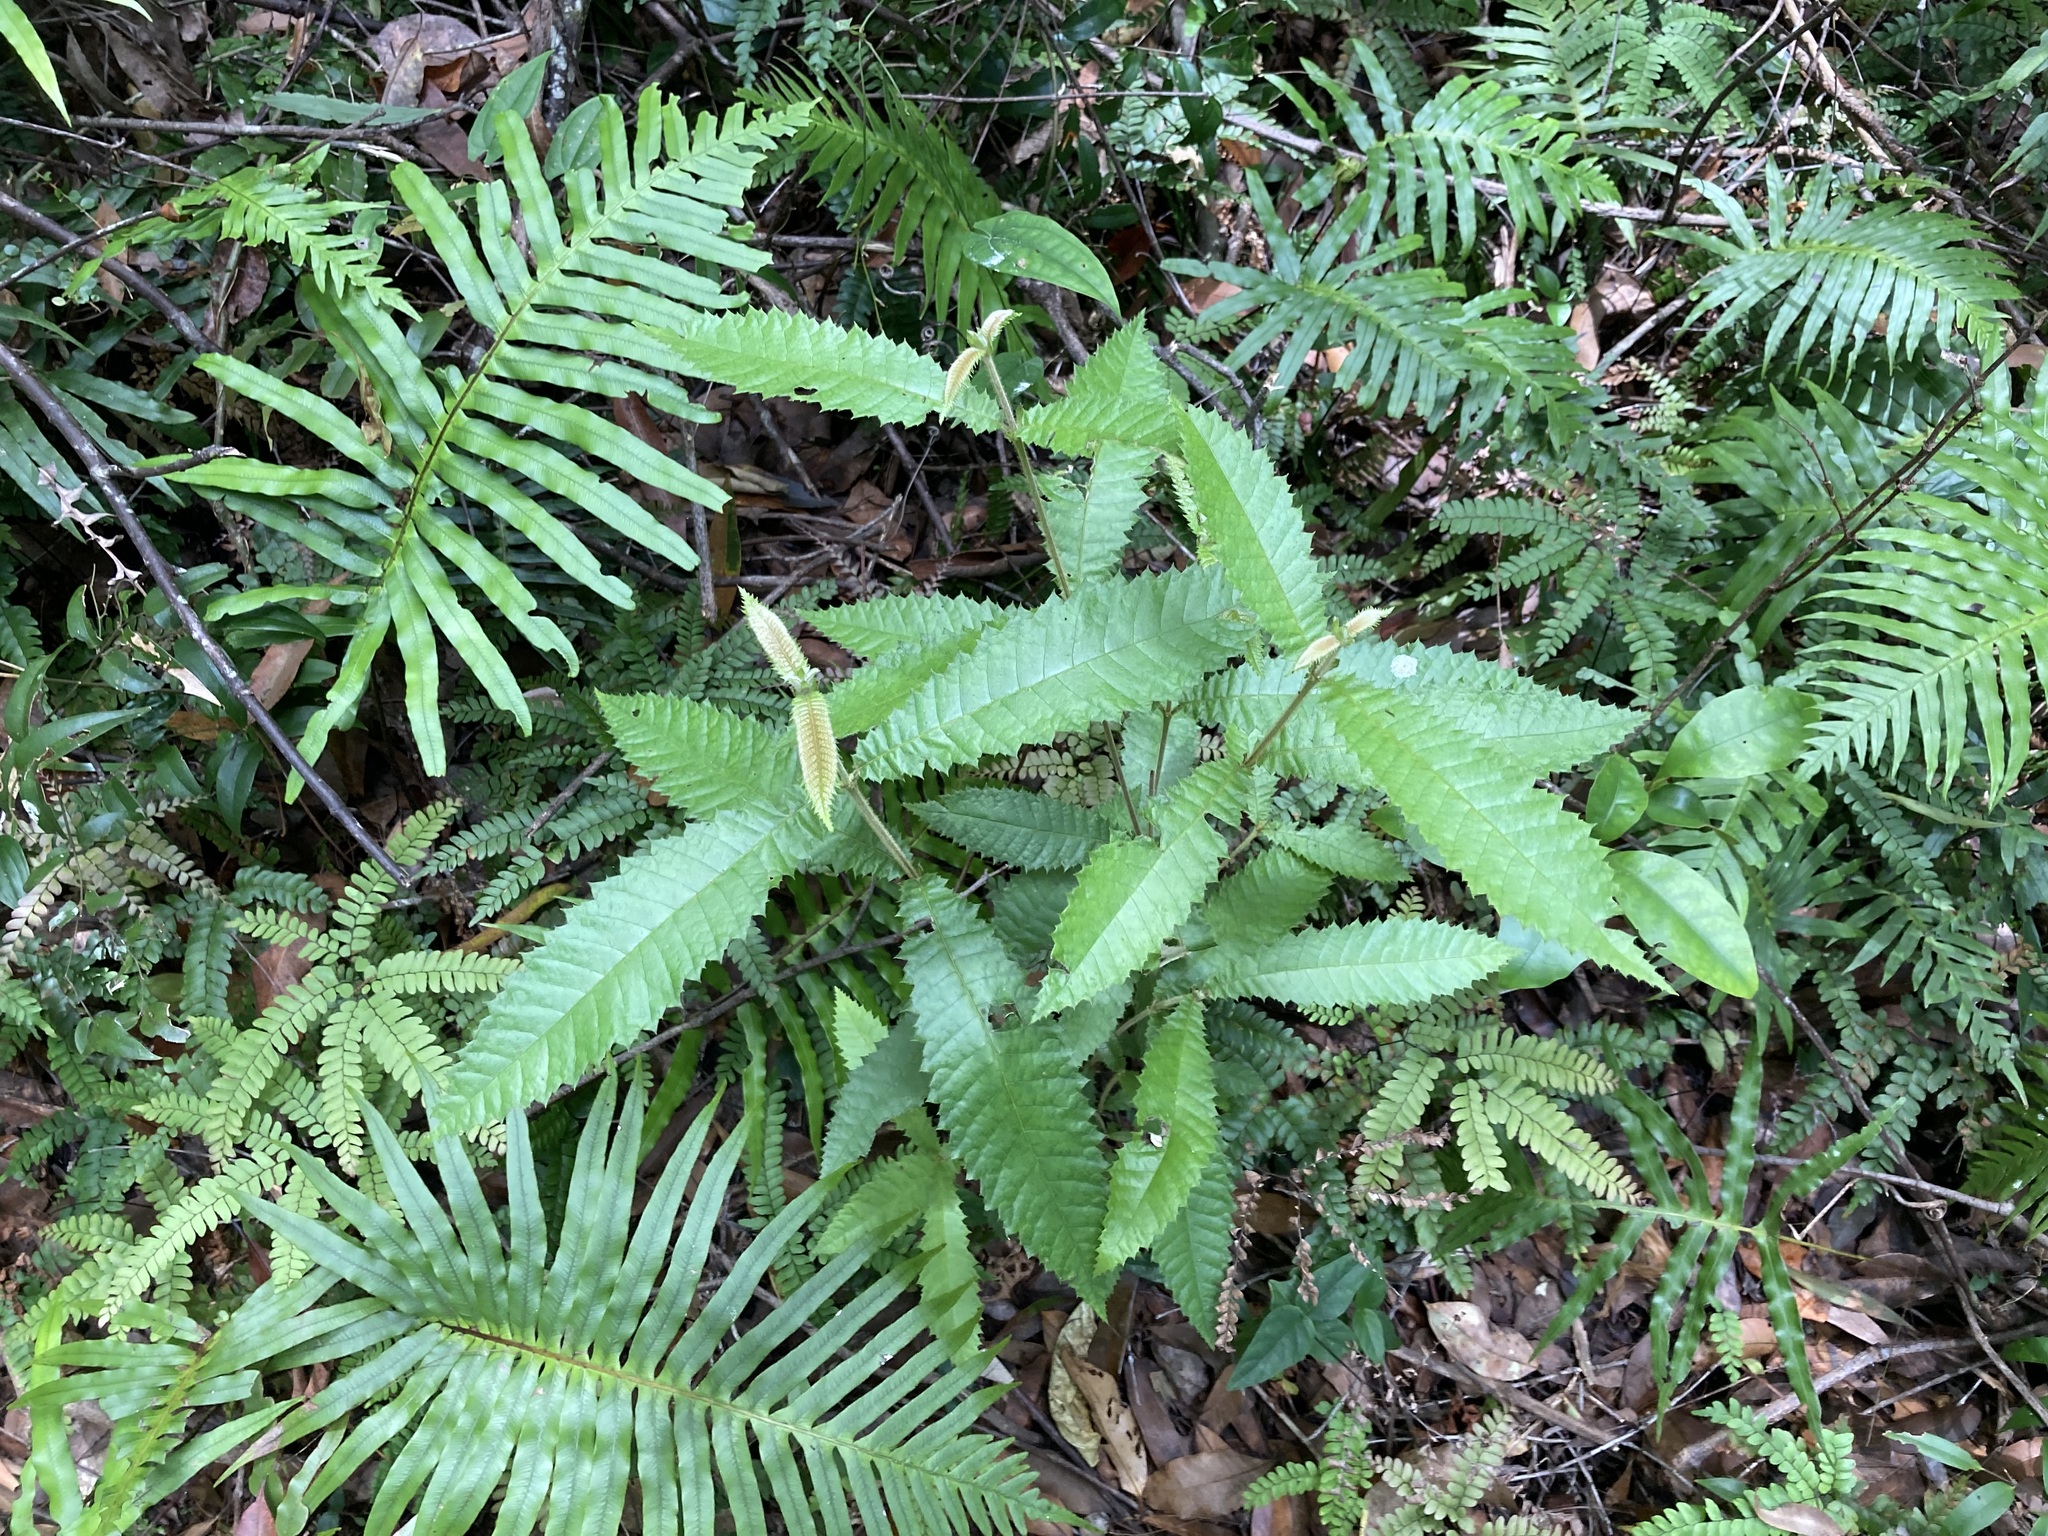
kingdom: Plantae
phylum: Tracheophyta
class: Magnoliopsida
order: Oxalidales
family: Cunoniaceae
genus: Callicoma
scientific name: Callicoma serratifolia
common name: Black wattle
